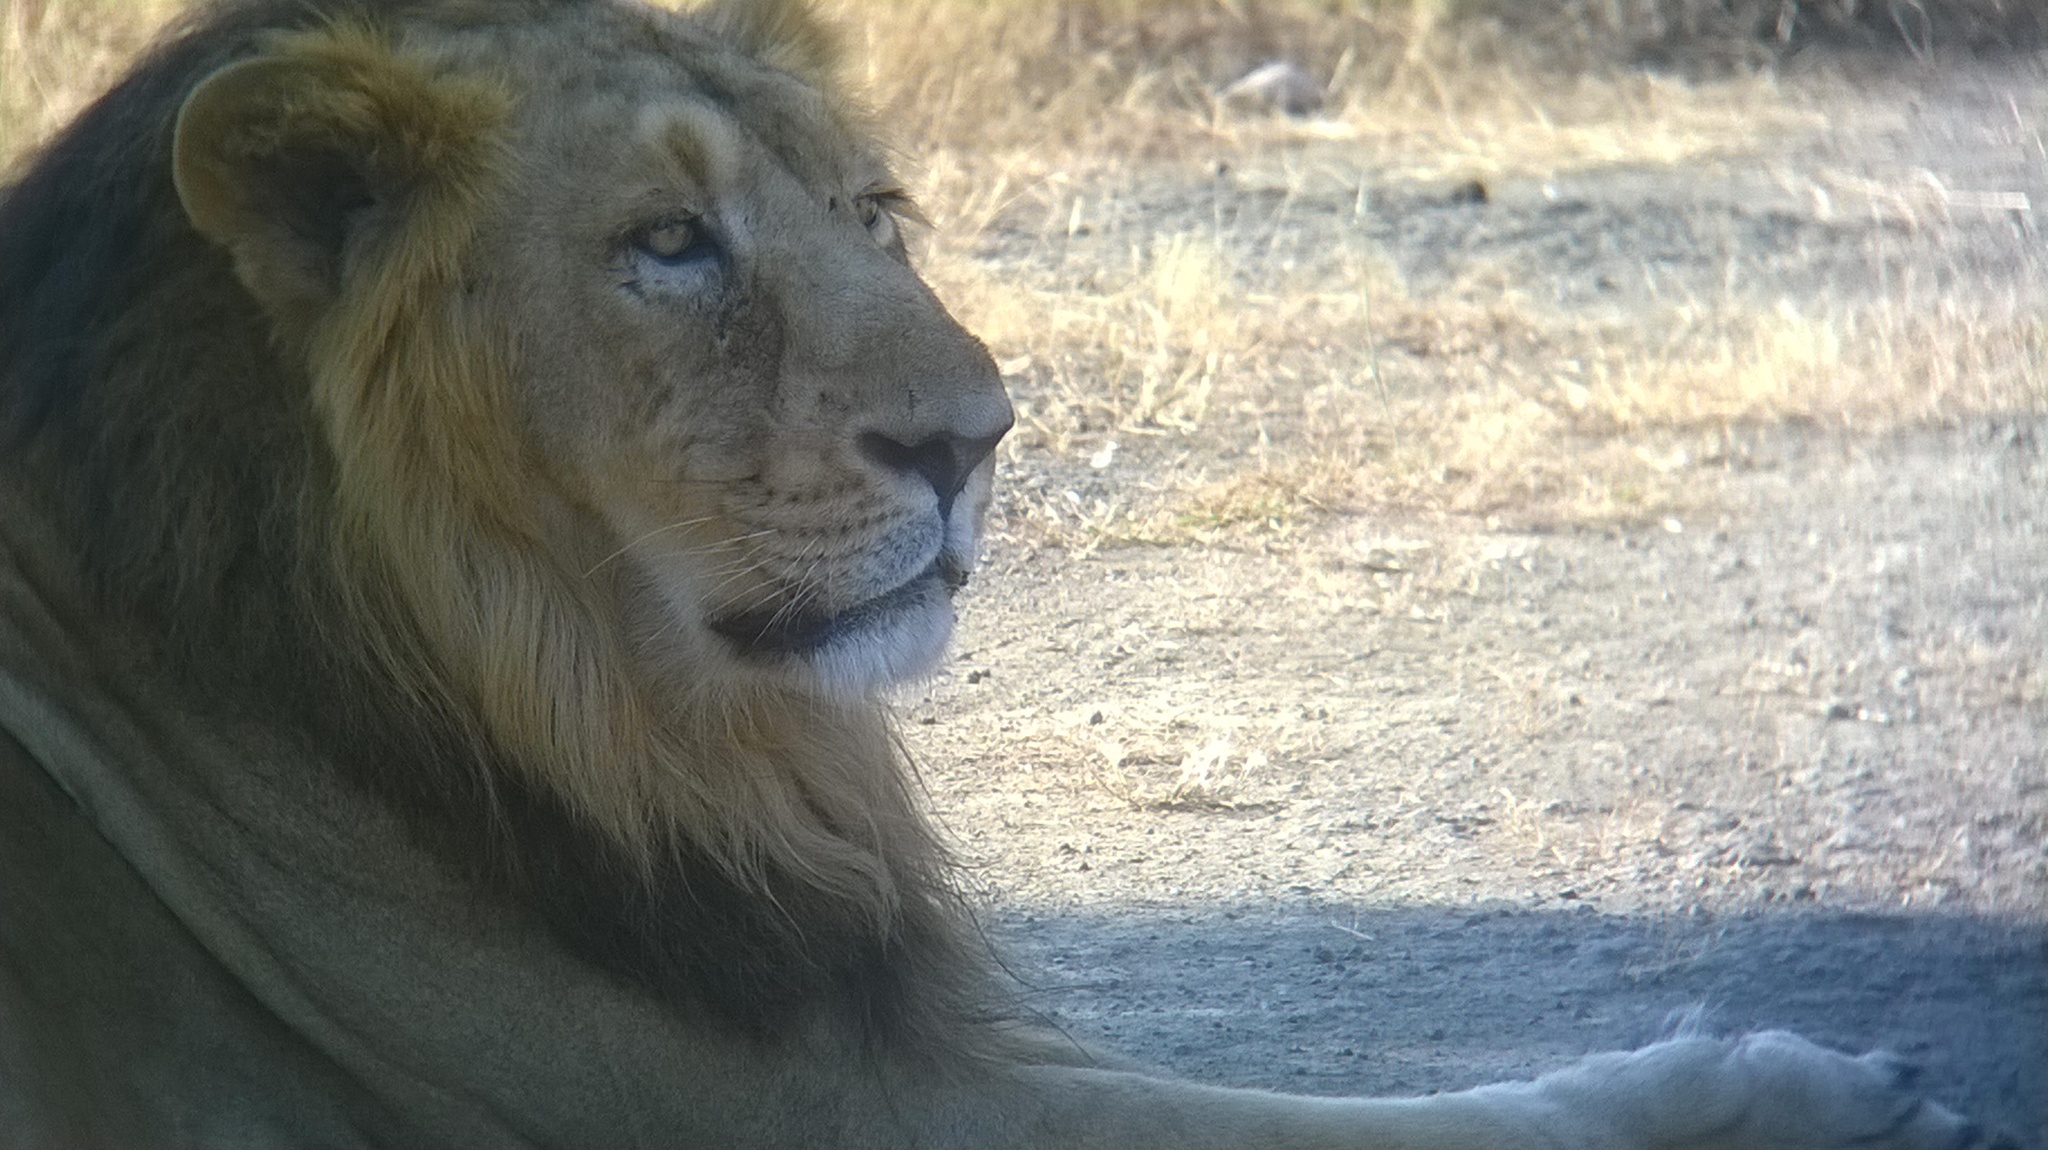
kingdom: Animalia
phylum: Chordata
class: Mammalia
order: Carnivora
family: Felidae
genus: Panthera
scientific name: Panthera leo
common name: Lion
